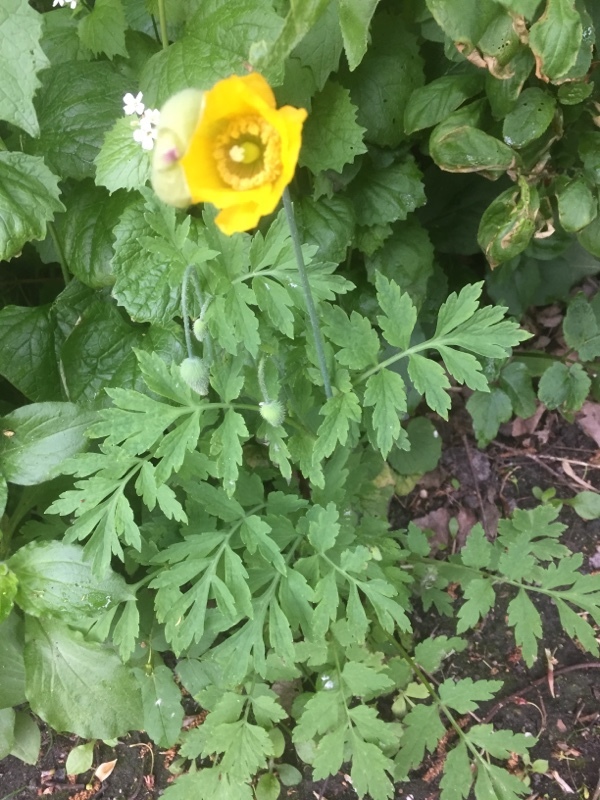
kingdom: Plantae
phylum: Tracheophyta
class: Magnoliopsida
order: Ranunculales
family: Papaveraceae
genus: Papaver
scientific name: Papaver cambricum
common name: Poppy
